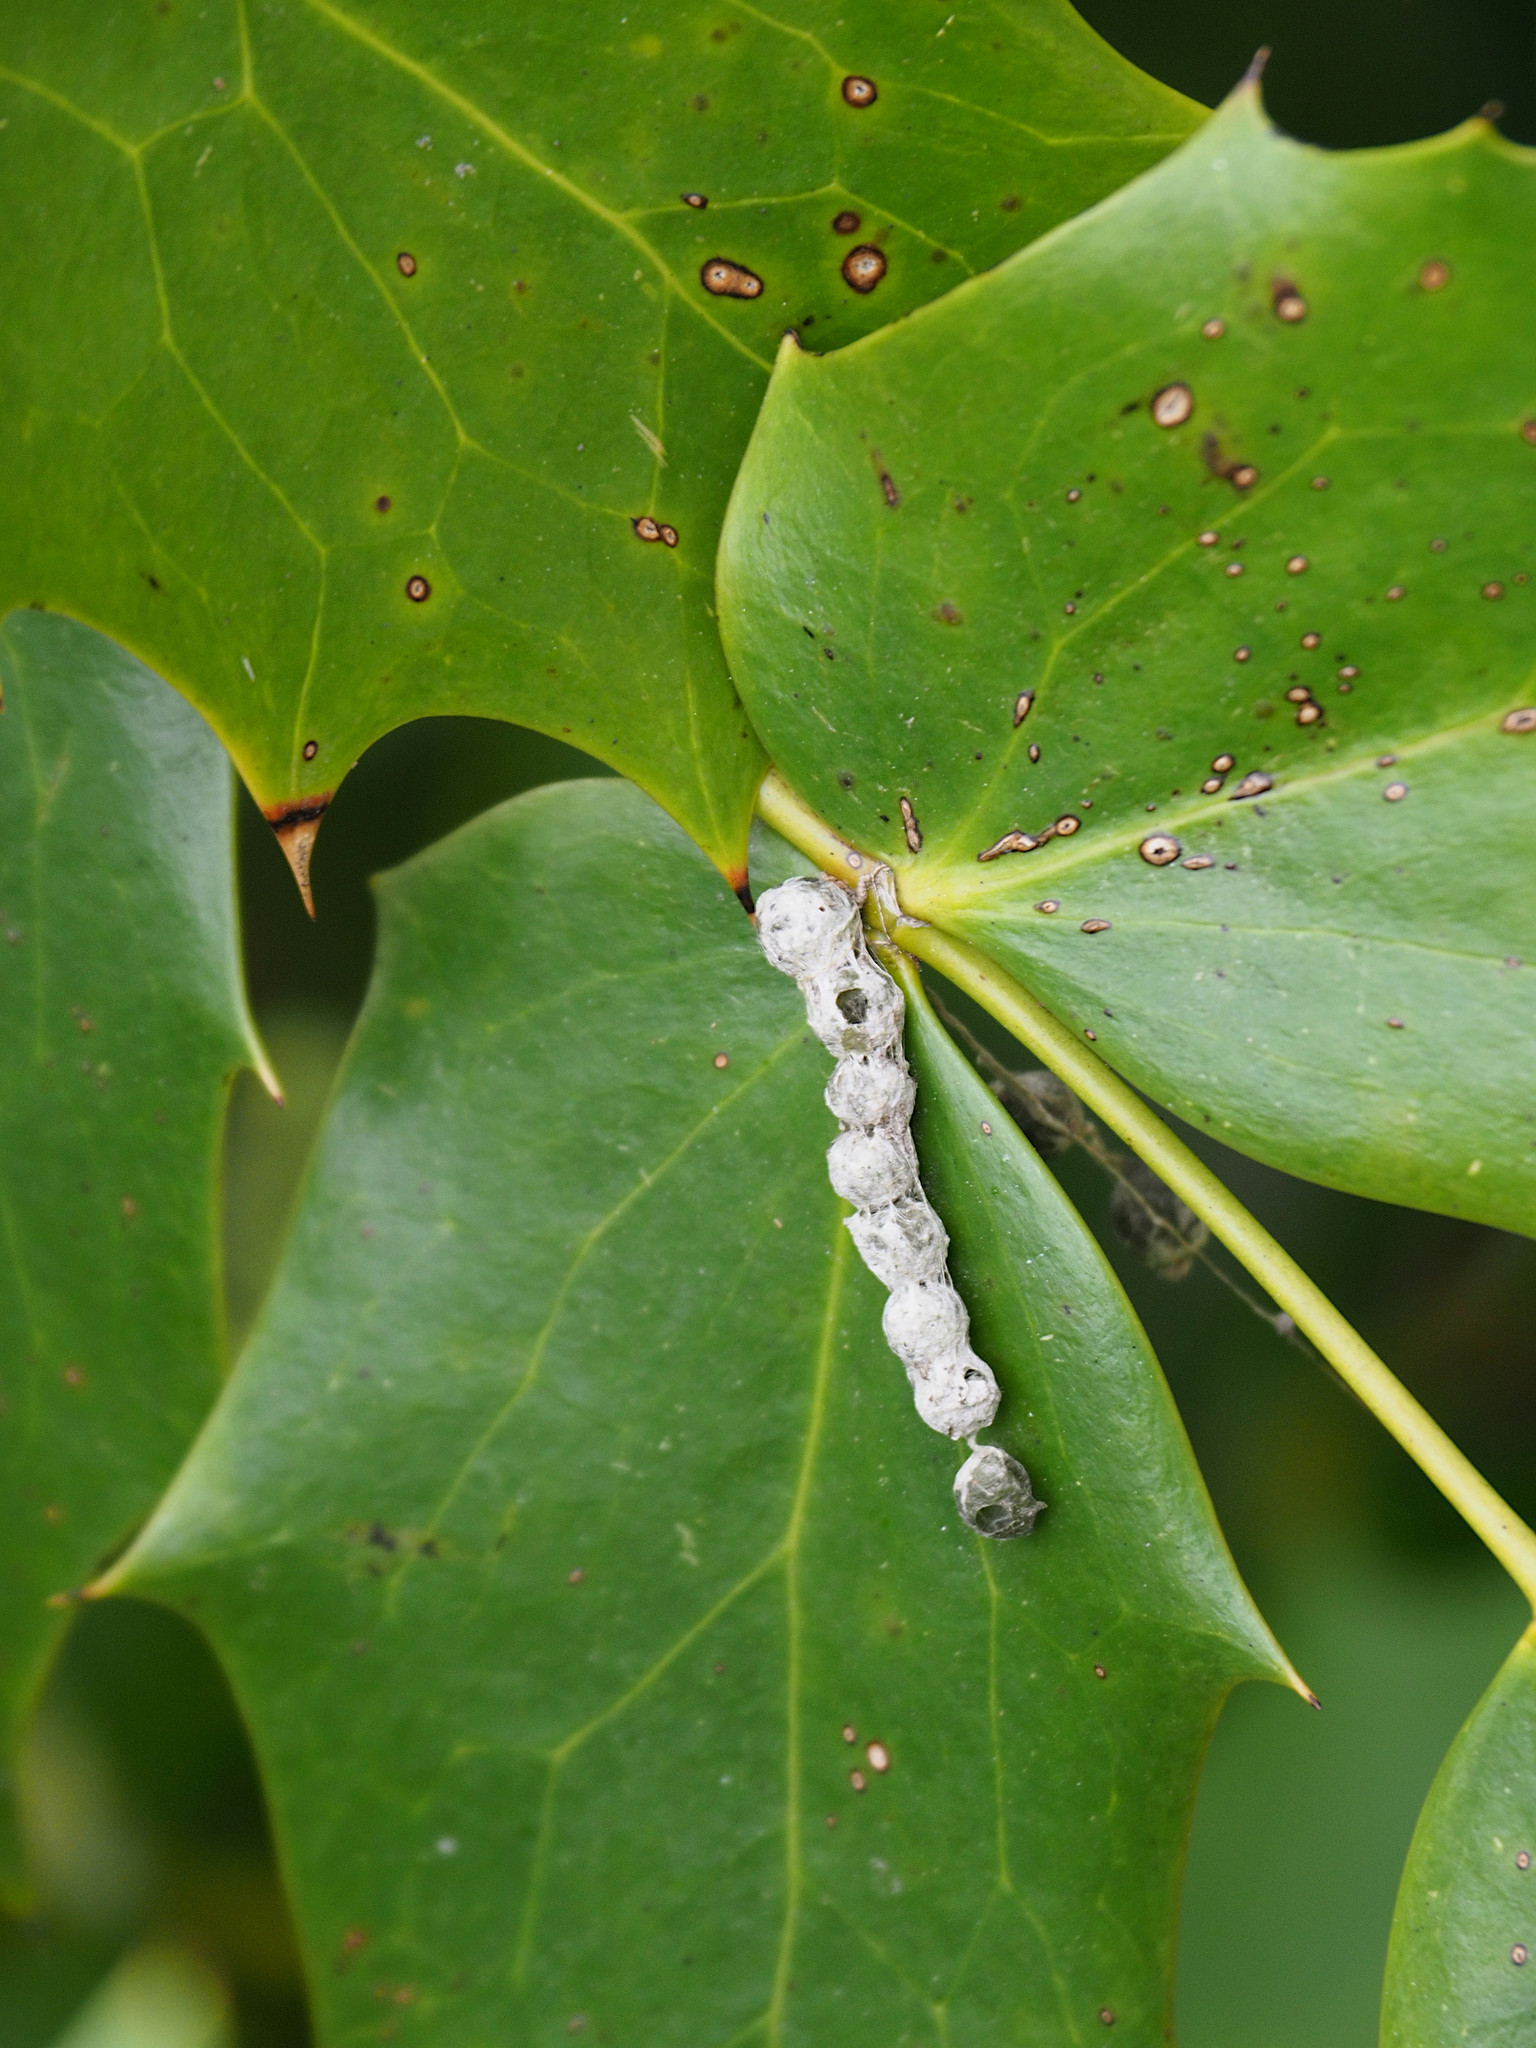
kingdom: Animalia
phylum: Arthropoda
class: Arachnida
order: Araneae
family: Araneidae
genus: Mecynogea
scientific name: Mecynogea lemniscata
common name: Orb weavers
